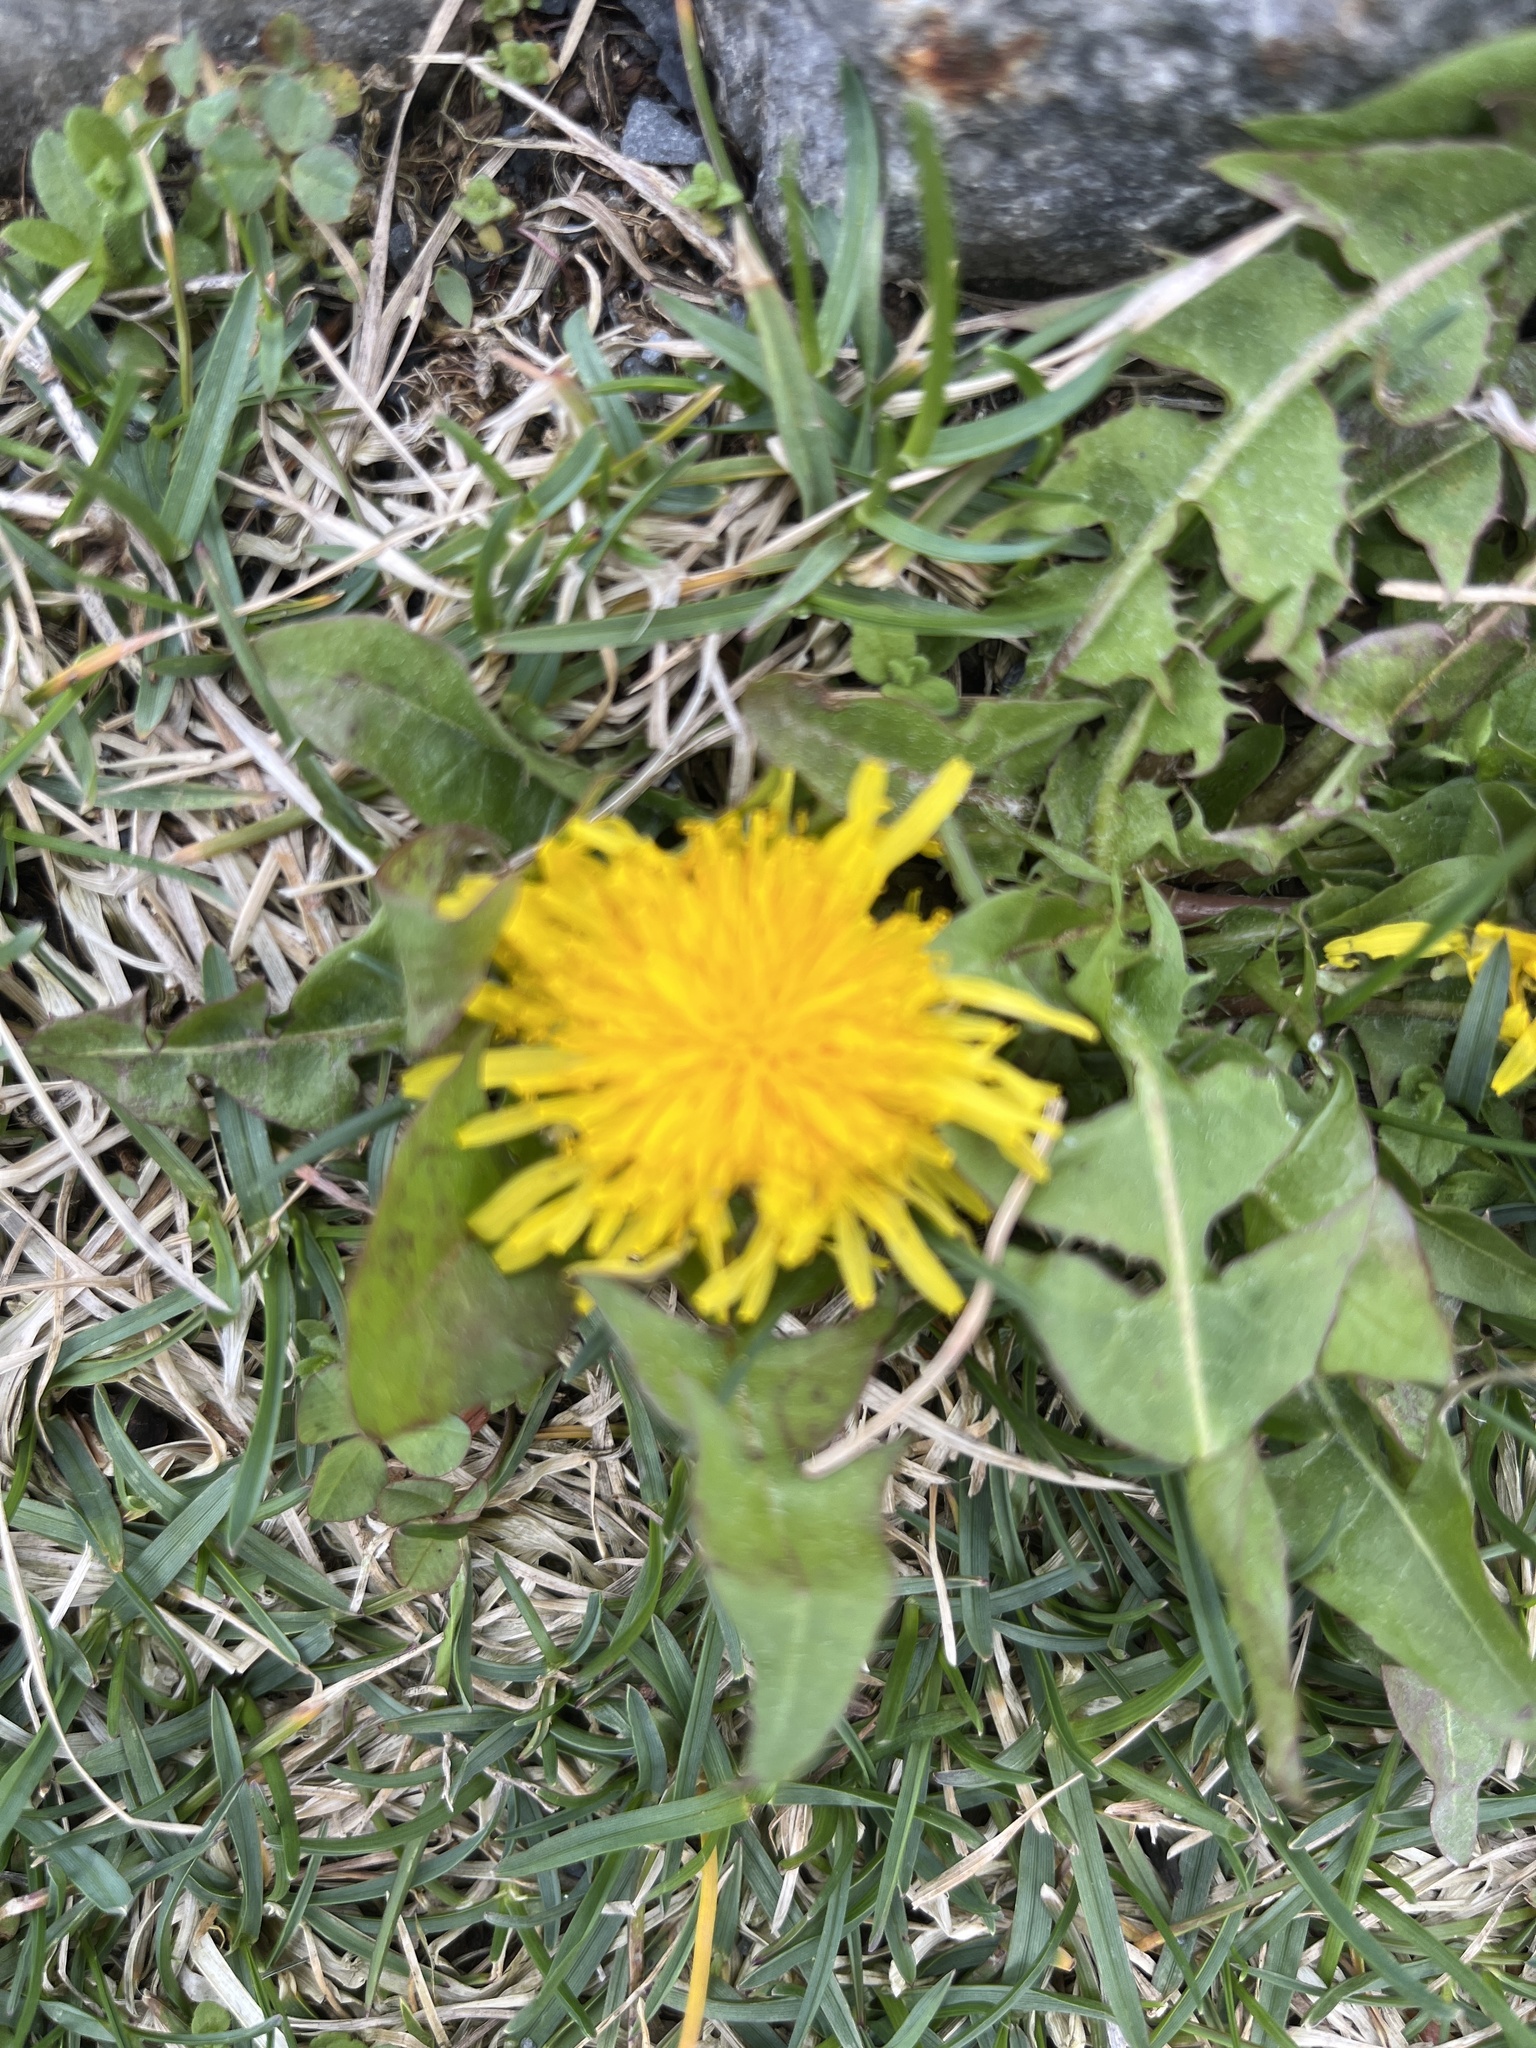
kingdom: Plantae
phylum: Tracheophyta
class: Magnoliopsida
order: Asterales
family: Asteraceae
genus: Taraxacum
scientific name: Taraxacum officinale
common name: Common dandelion
